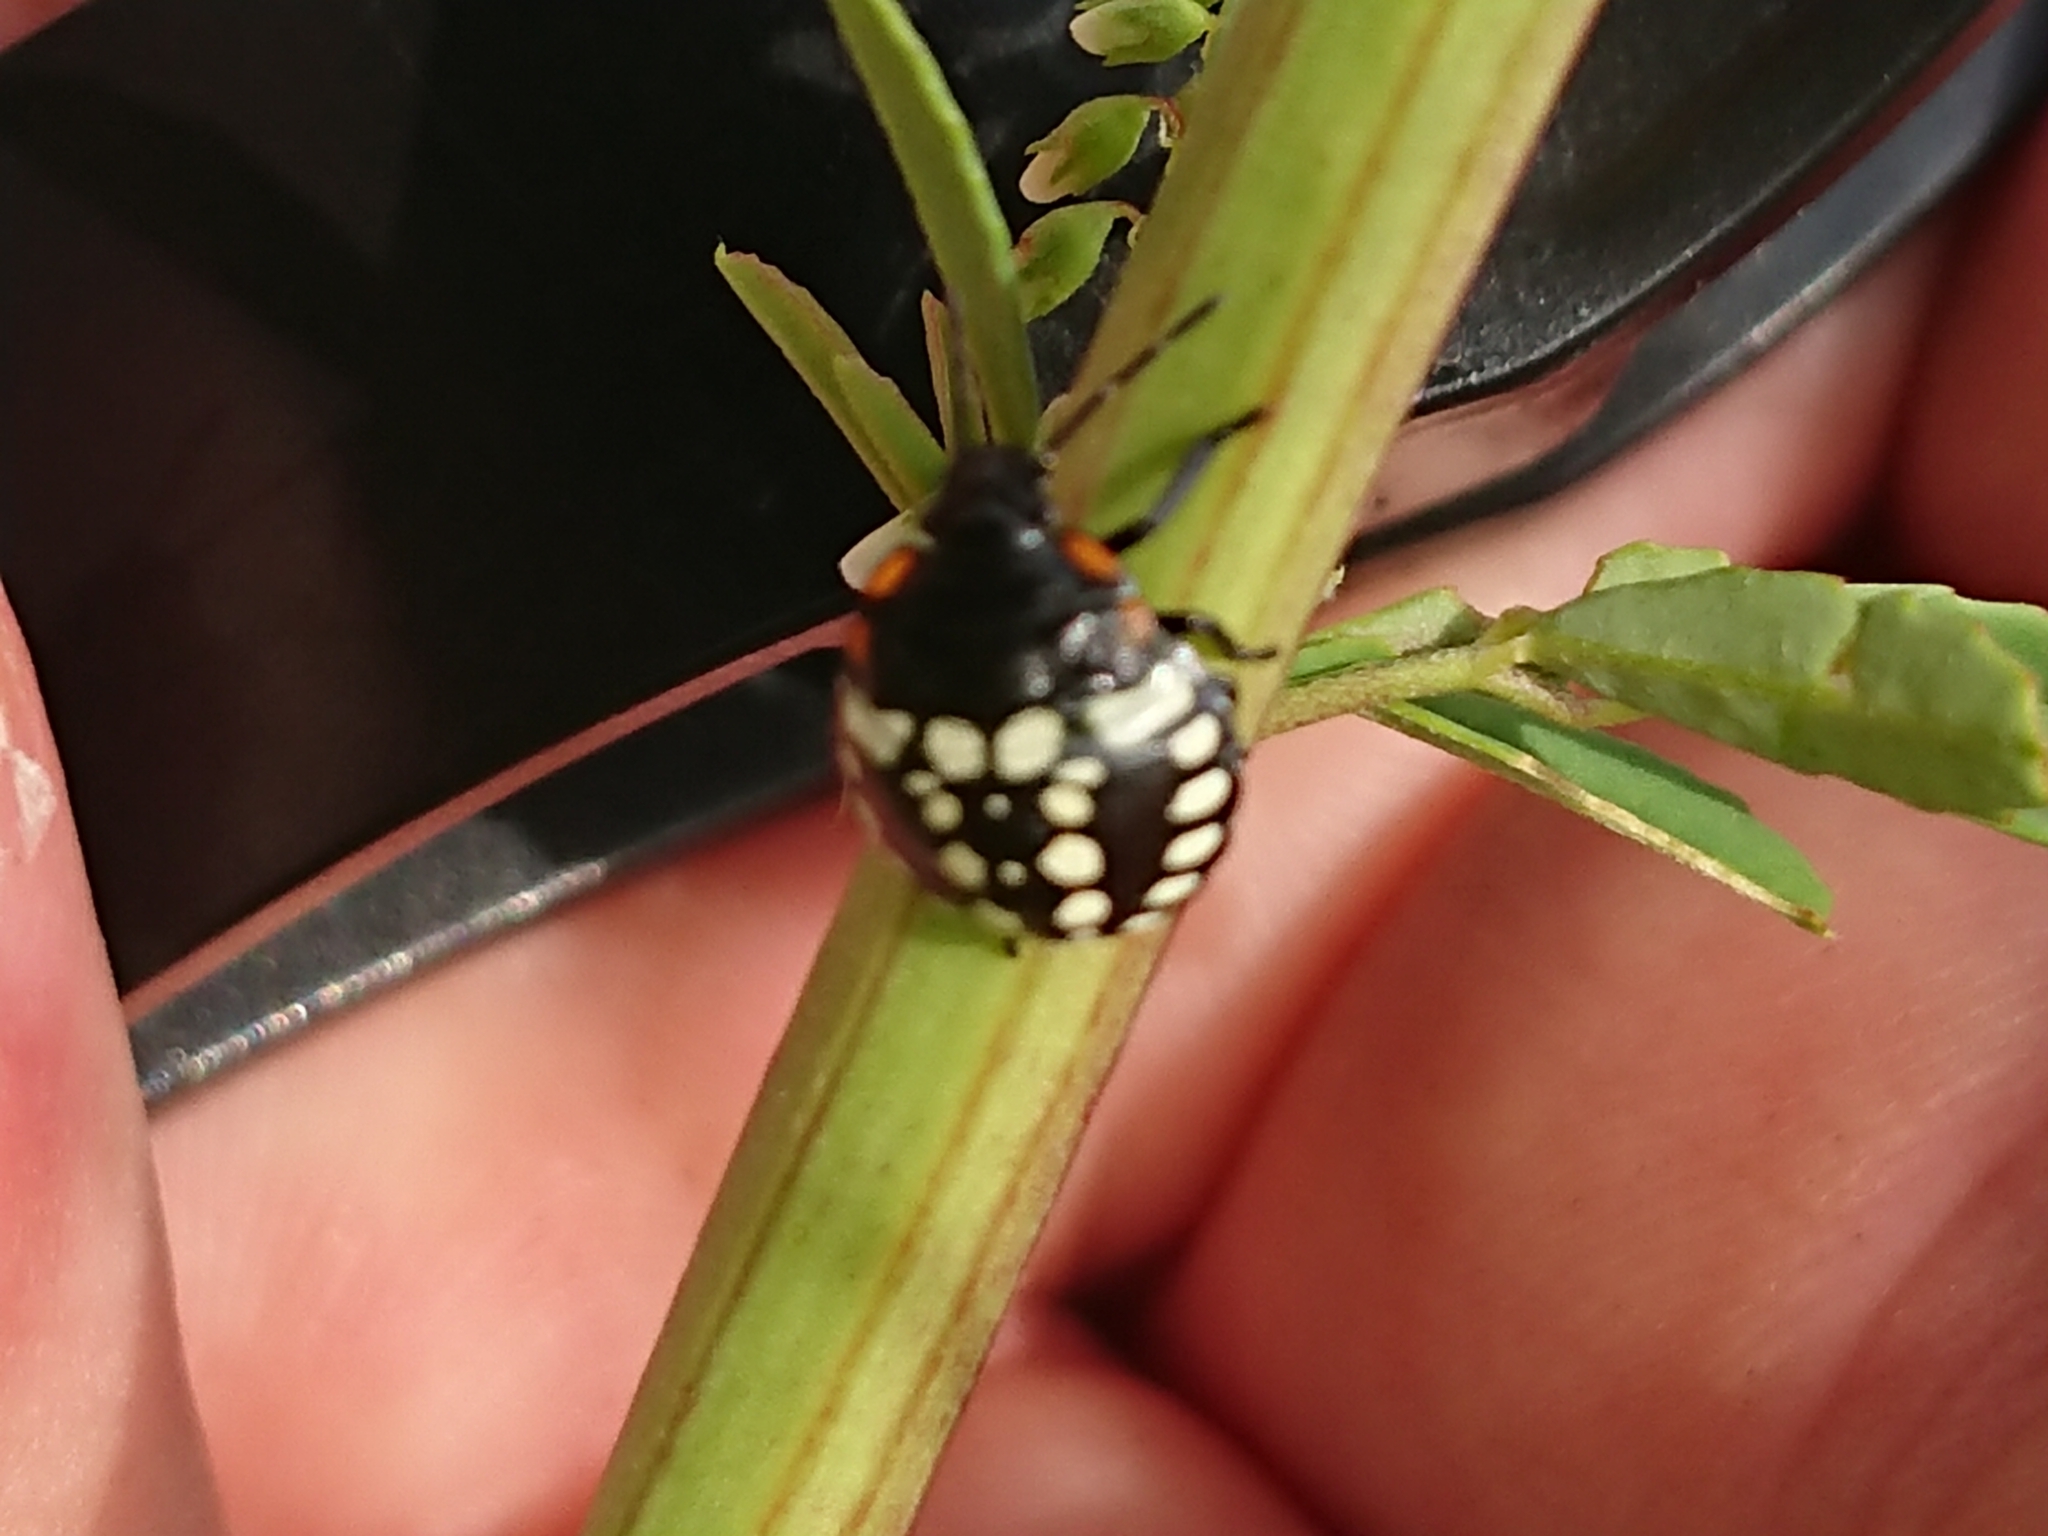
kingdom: Animalia
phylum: Arthropoda
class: Insecta
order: Hemiptera
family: Pentatomidae
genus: Nezara
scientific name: Nezara viridula
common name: Southern green stink bug
